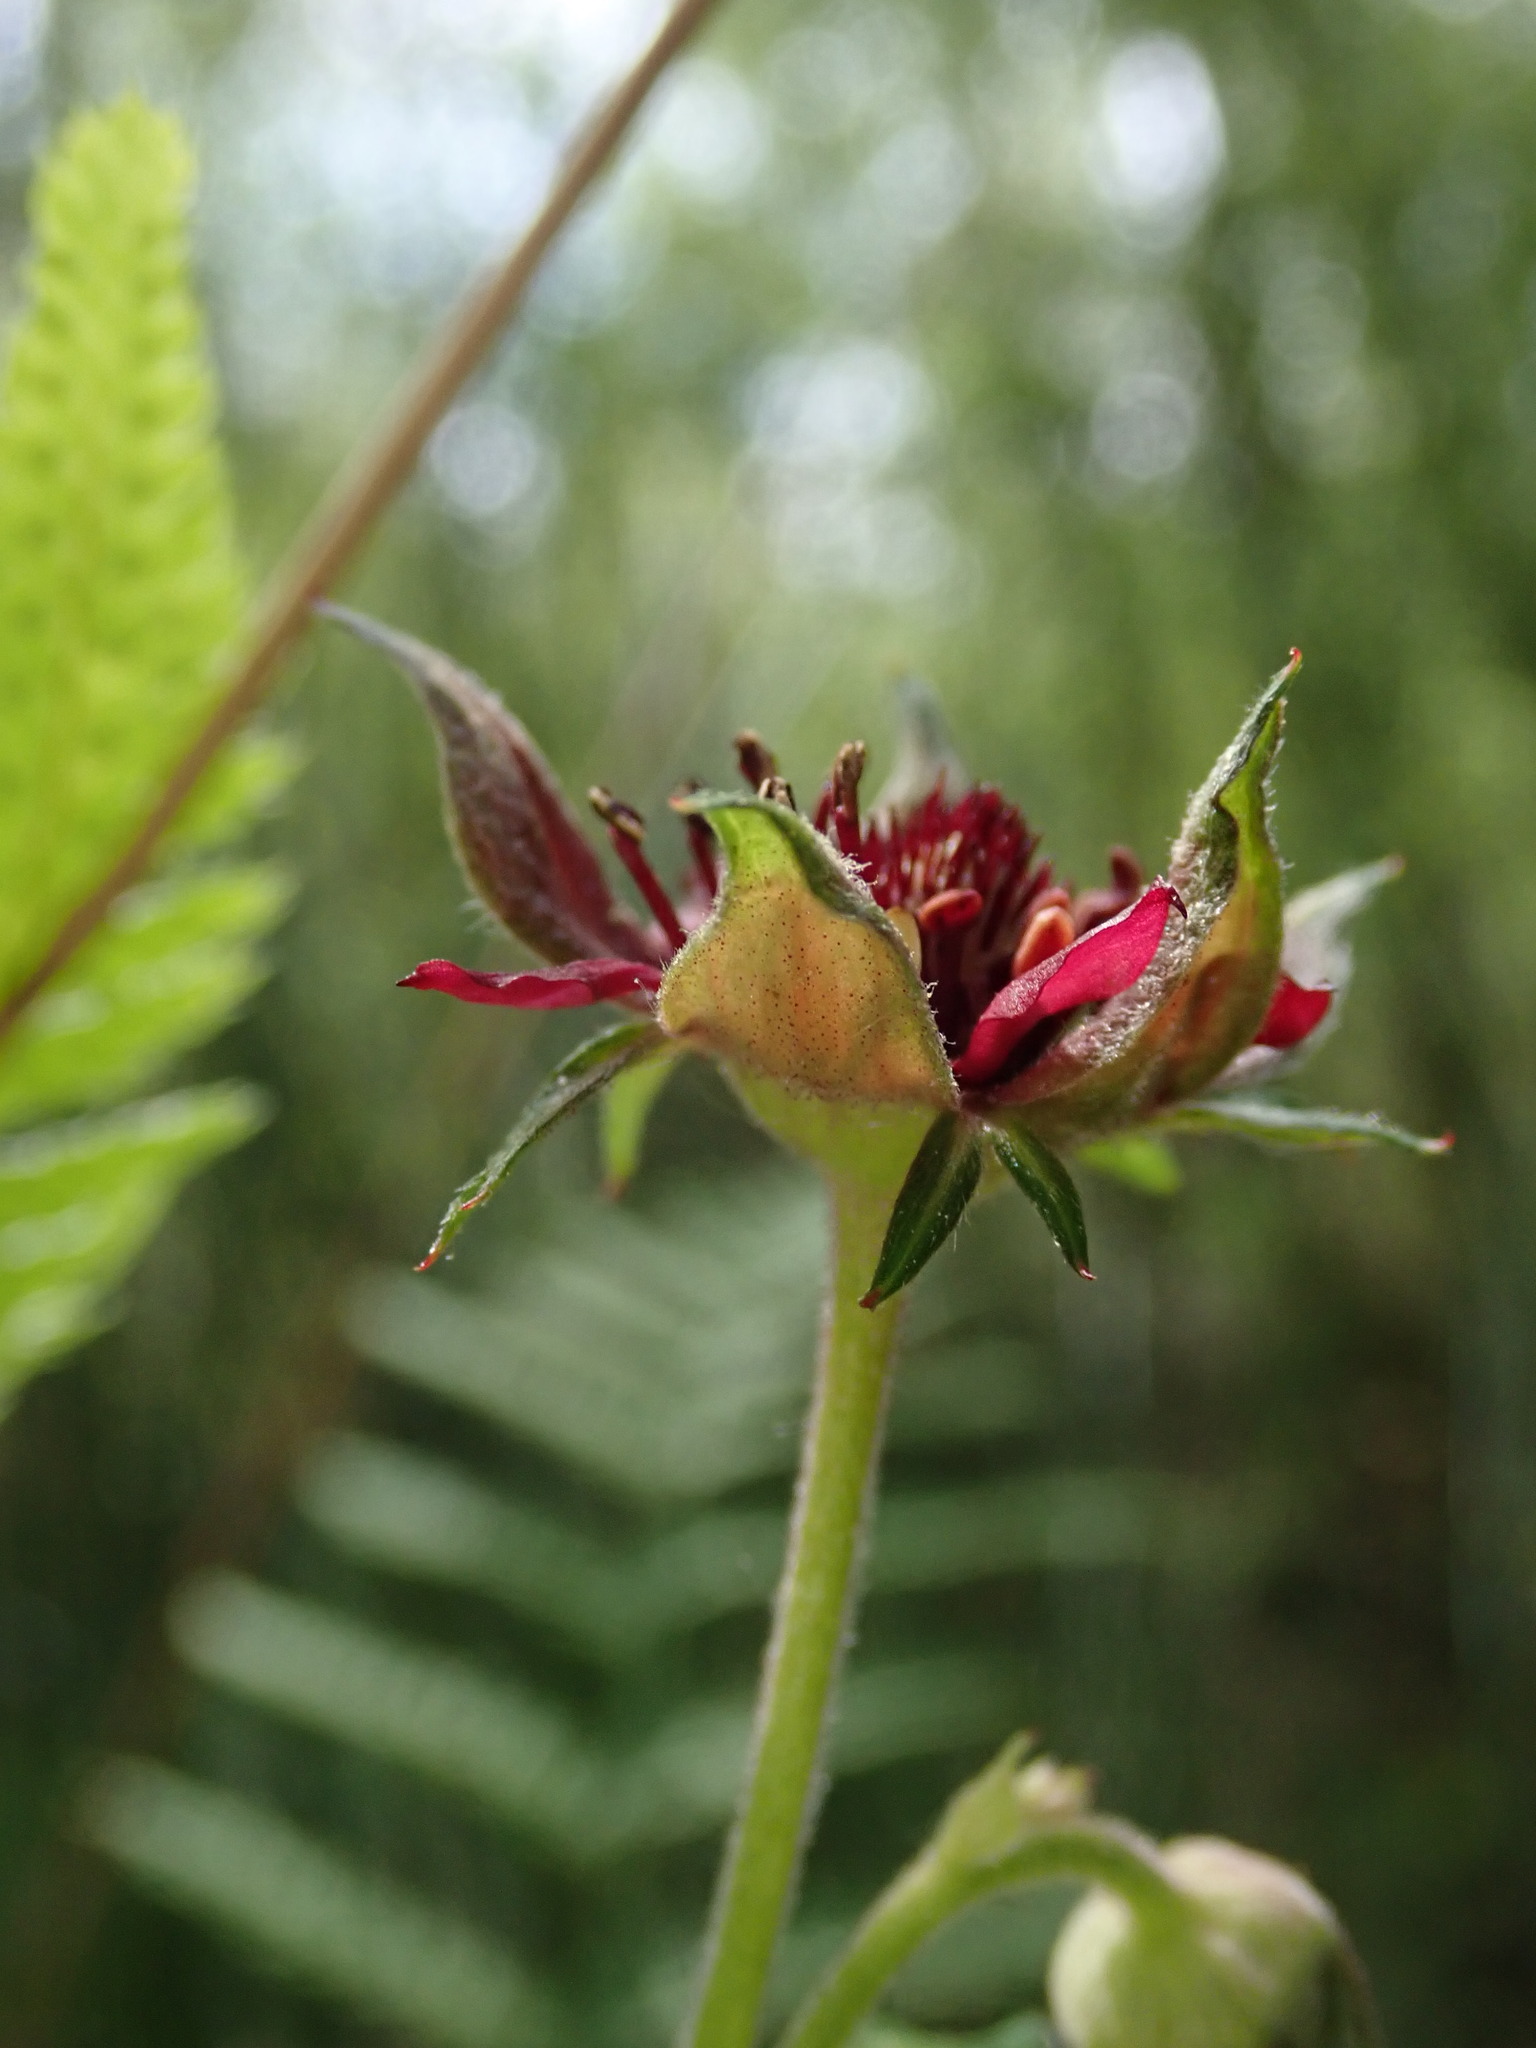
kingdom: Plantae
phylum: Tracheophyta
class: Magnoliopsida
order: Rosales
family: Rosaceae
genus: Comarum
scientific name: Comarum palustre
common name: Marsh cinquefoil
